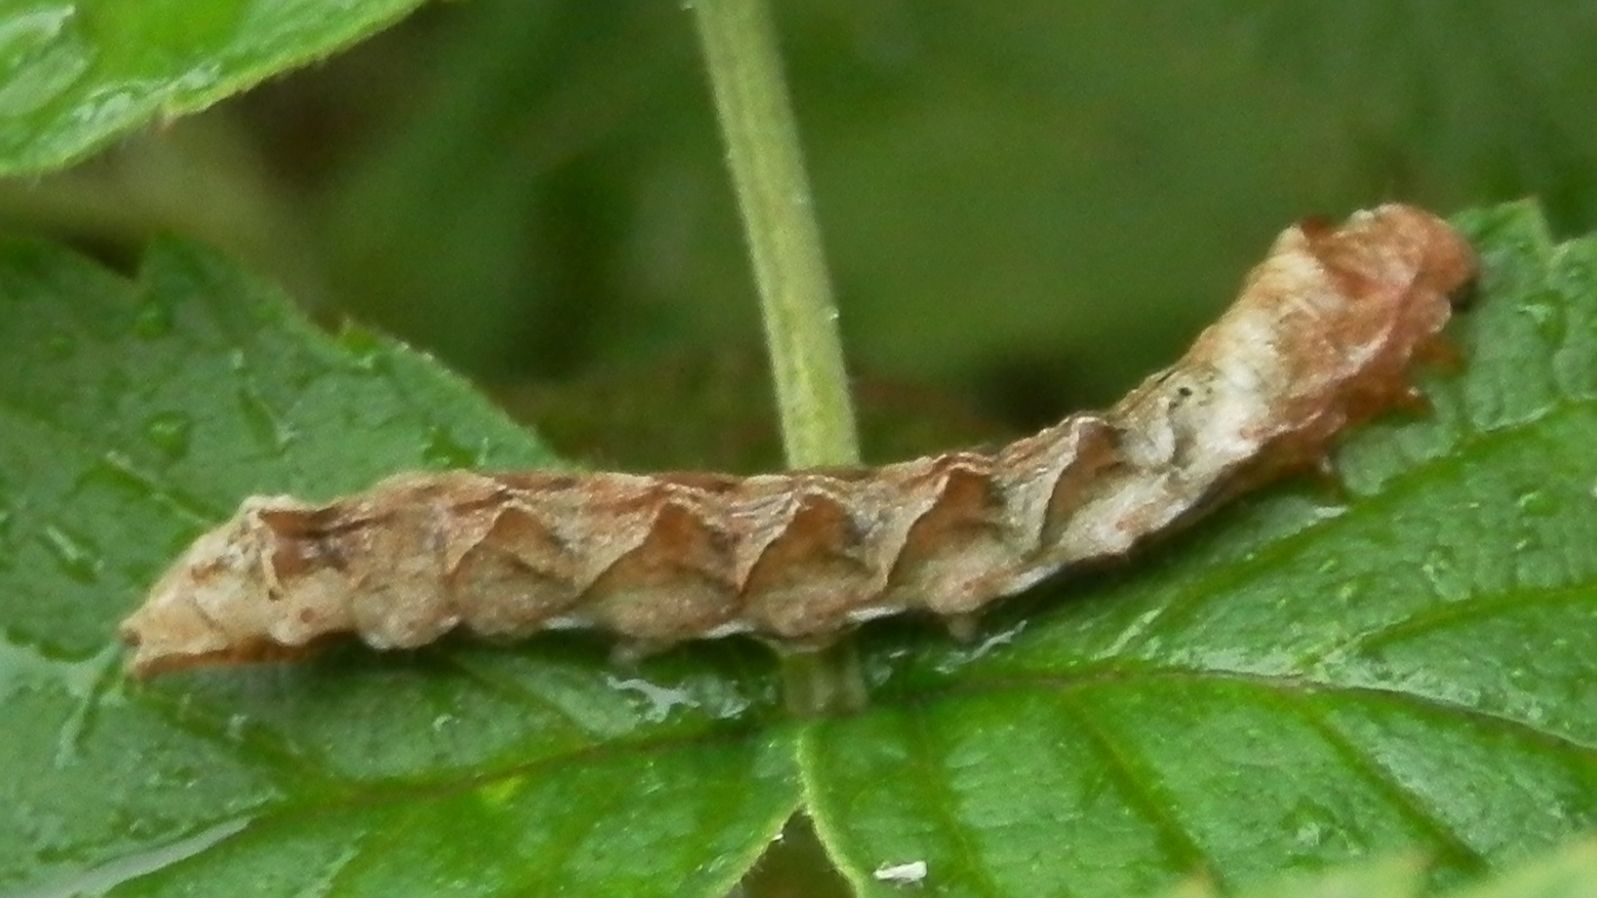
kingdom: Animalia
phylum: Arthropoda
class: Insecta
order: Lepidoptera
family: Drepanidae
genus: Thyatira
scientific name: Thyatira batis
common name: Peach blossom
